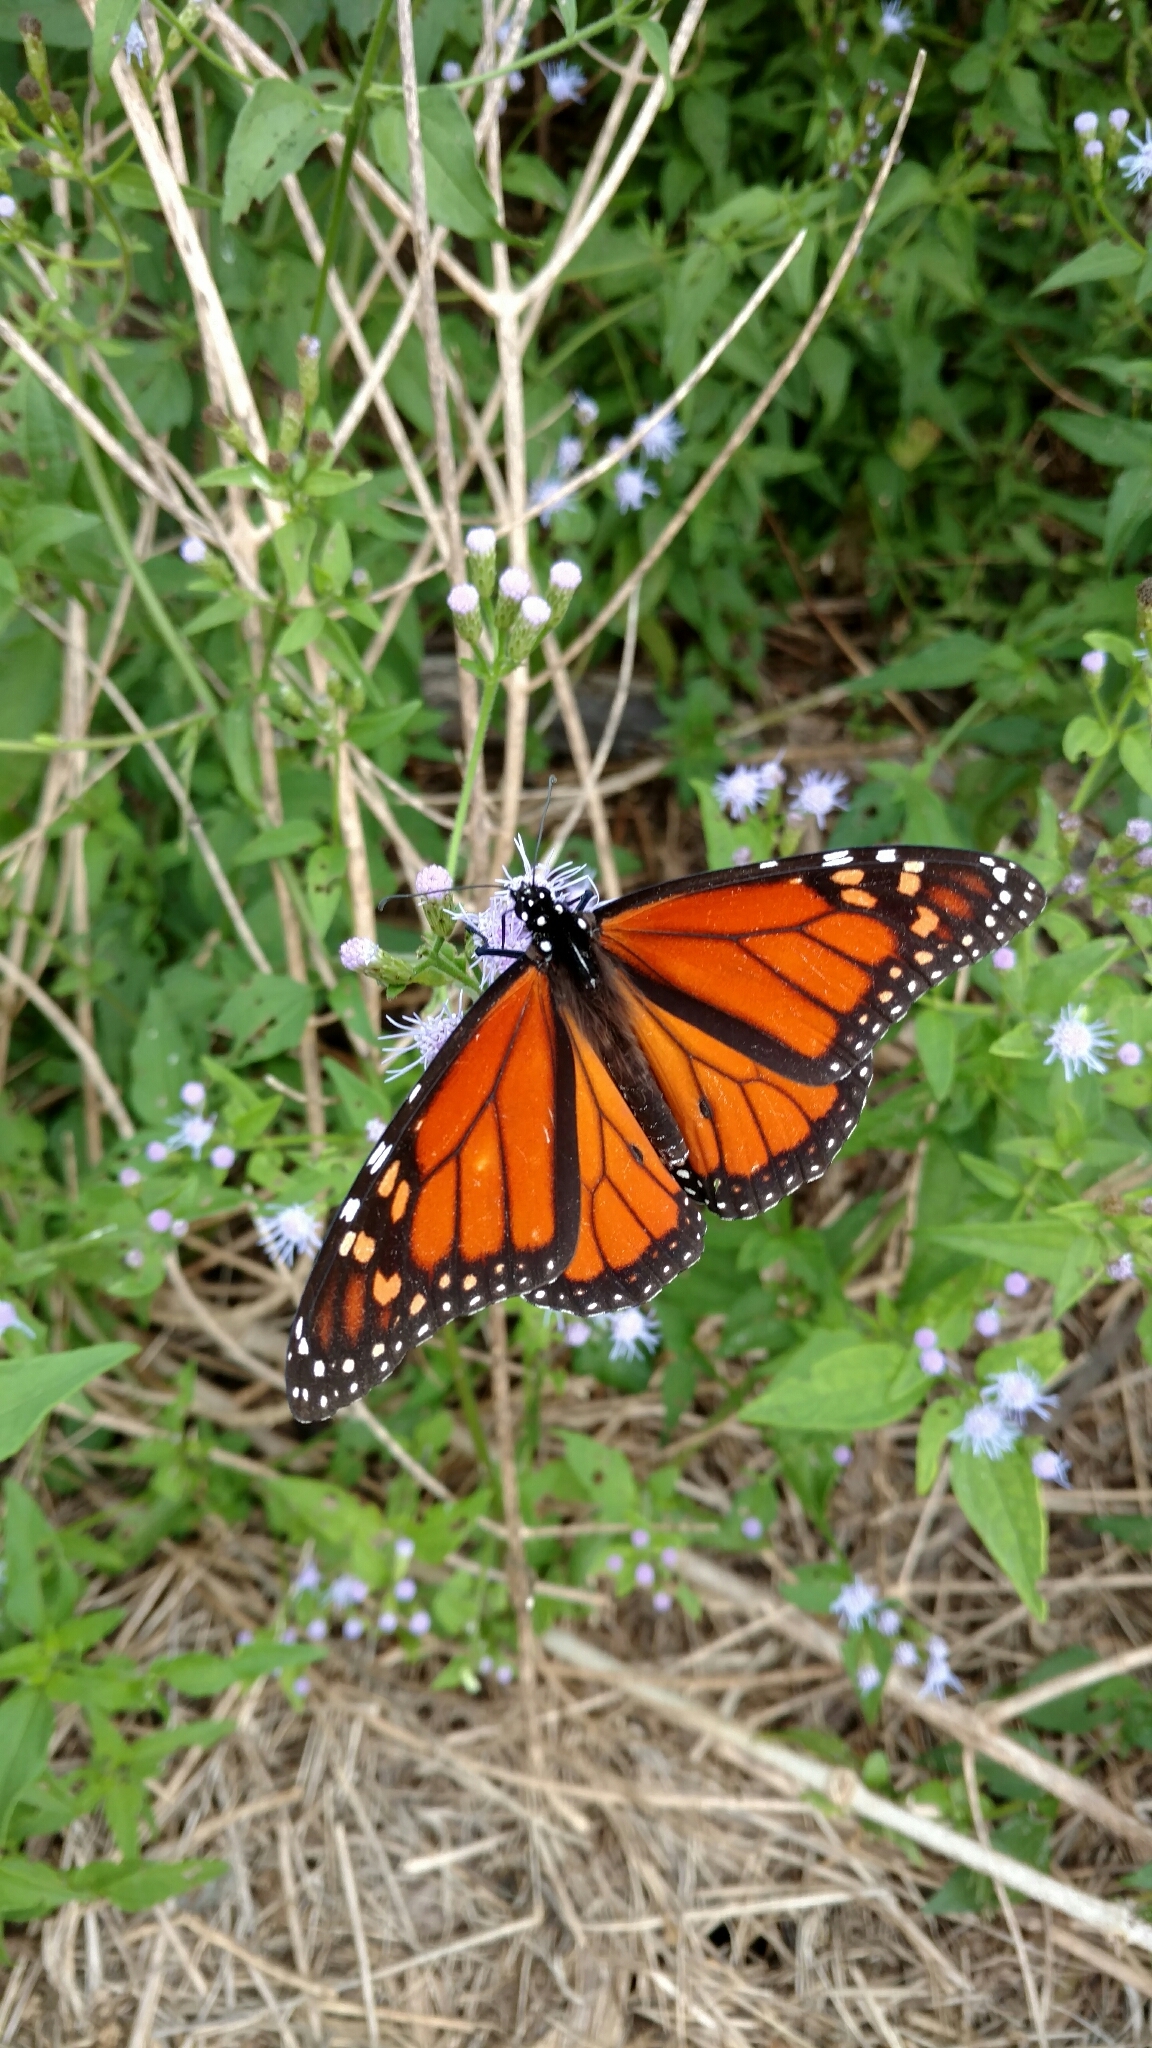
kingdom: Animalia
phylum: Arthropoda
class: Insecta
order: Lepidoptera
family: Nymphalidae
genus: Danaus
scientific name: Danaus plexippus
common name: Monarch
